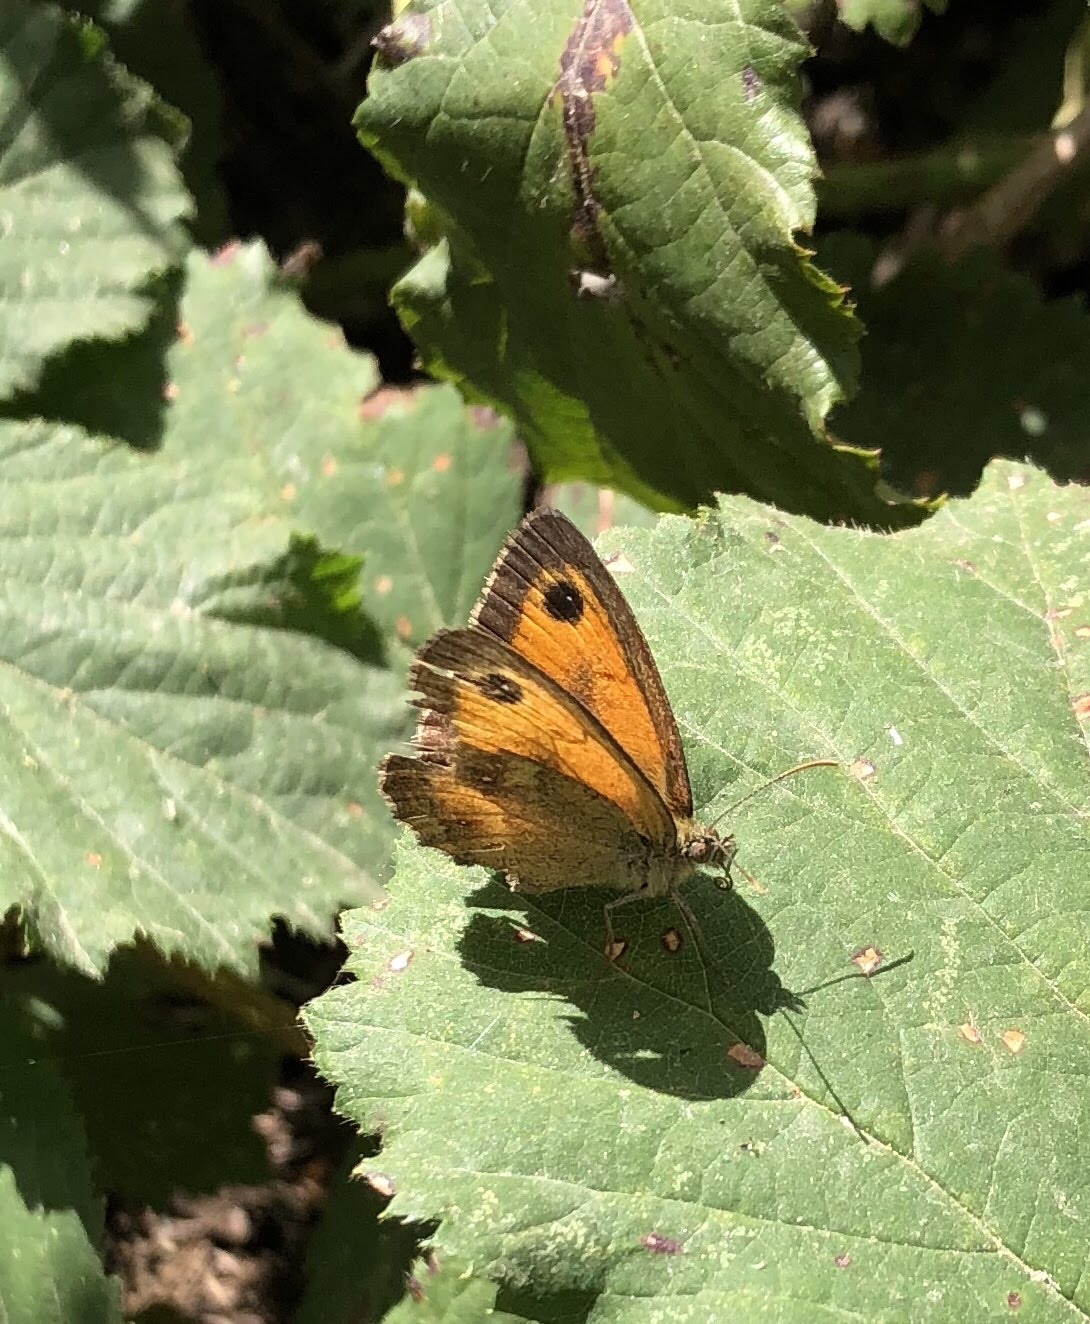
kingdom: Animalia
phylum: Arthropoda
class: Insecta
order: Lepidoptera
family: Nymphalidae
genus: Pyronia
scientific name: Pyronia tithonus
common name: Gatekeeper
